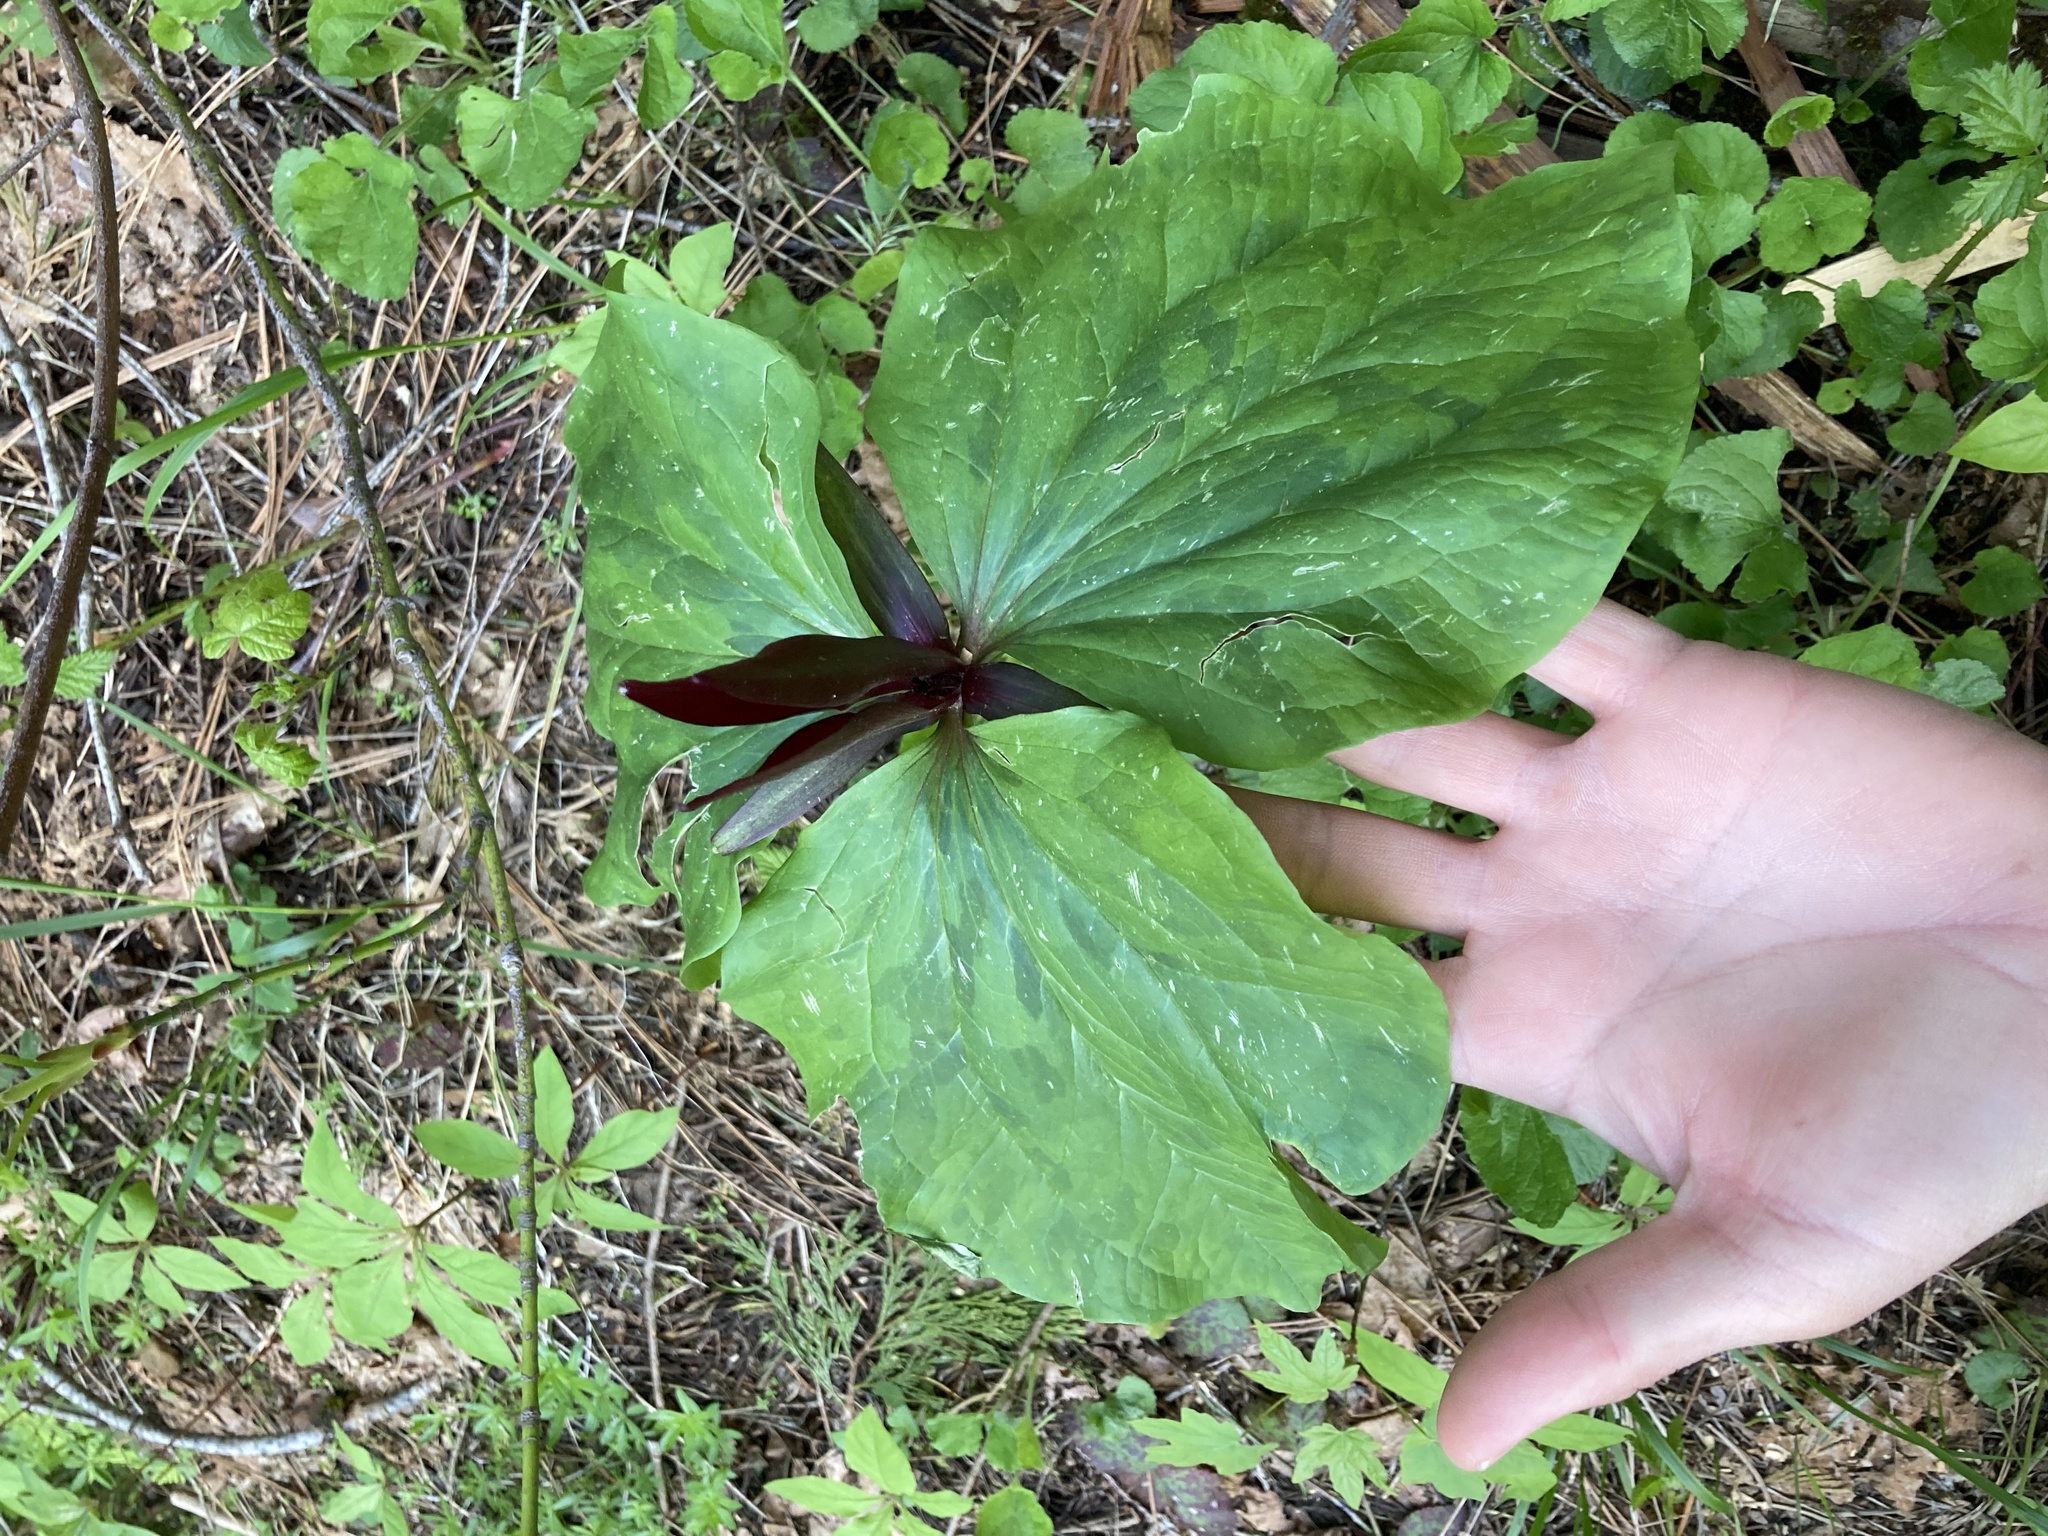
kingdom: Plantae
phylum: Tracheophyta
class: Liliopsida
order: Liliales
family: Melanthiaceae
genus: Trillium
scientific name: Trillium angustipetalum
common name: Narrow-petaled trillium
